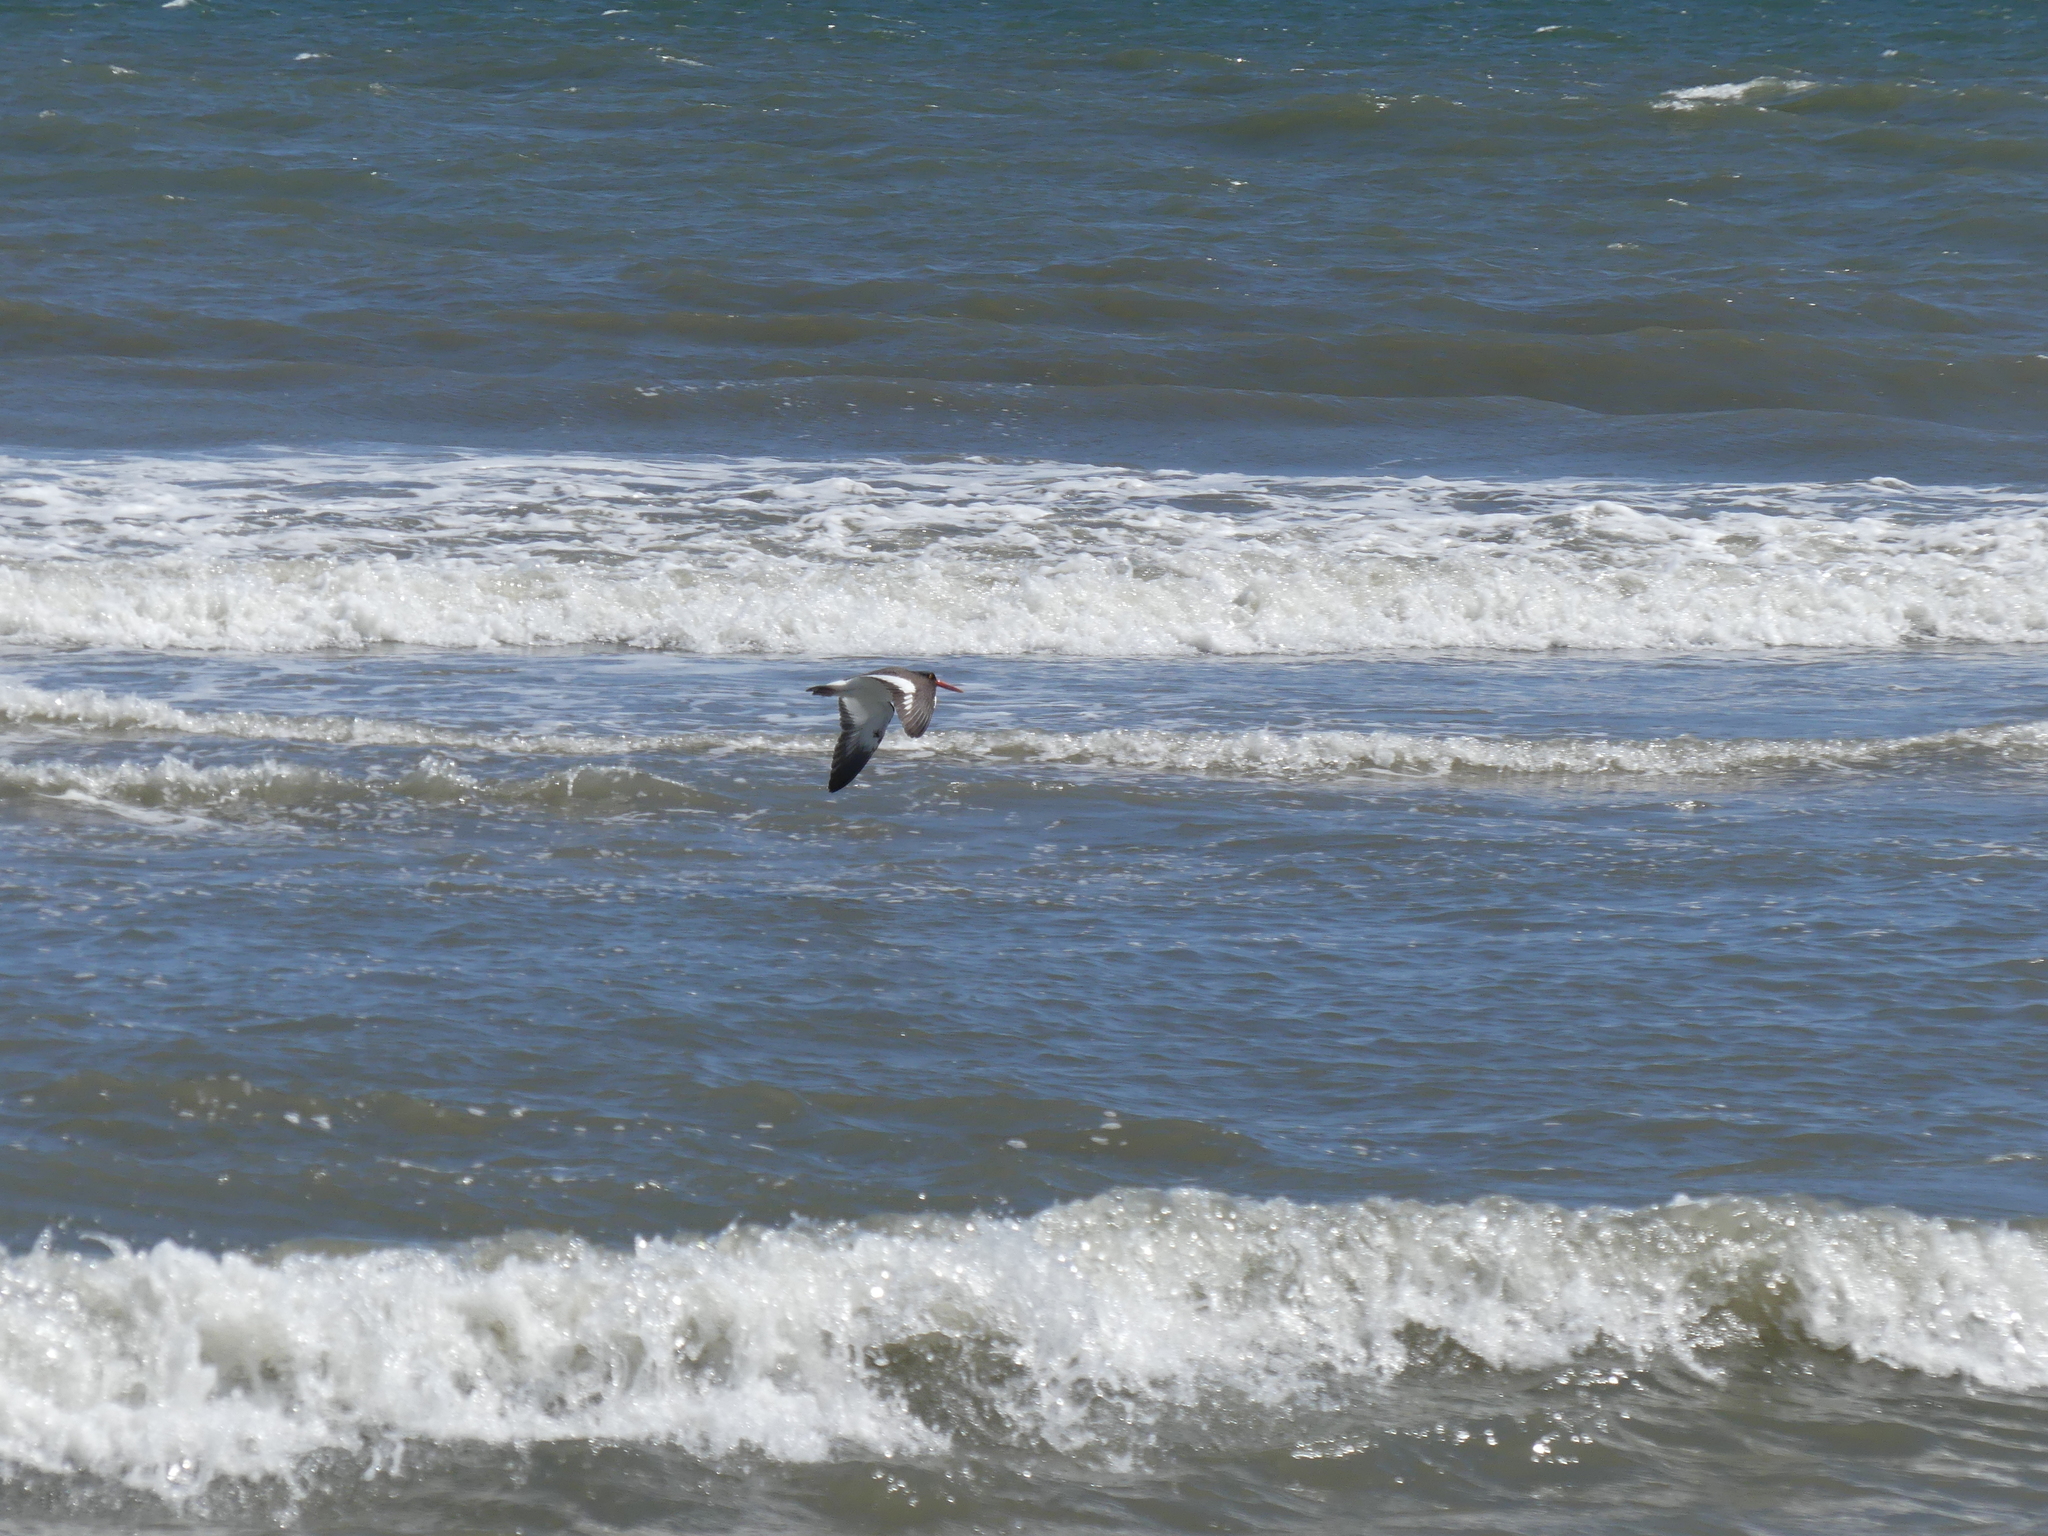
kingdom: Animalia
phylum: Chordata
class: Aves
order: Charadriiformes
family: Haematopodidae
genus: Haematopus
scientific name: Haematopus palliatus
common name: American oystercatcher
